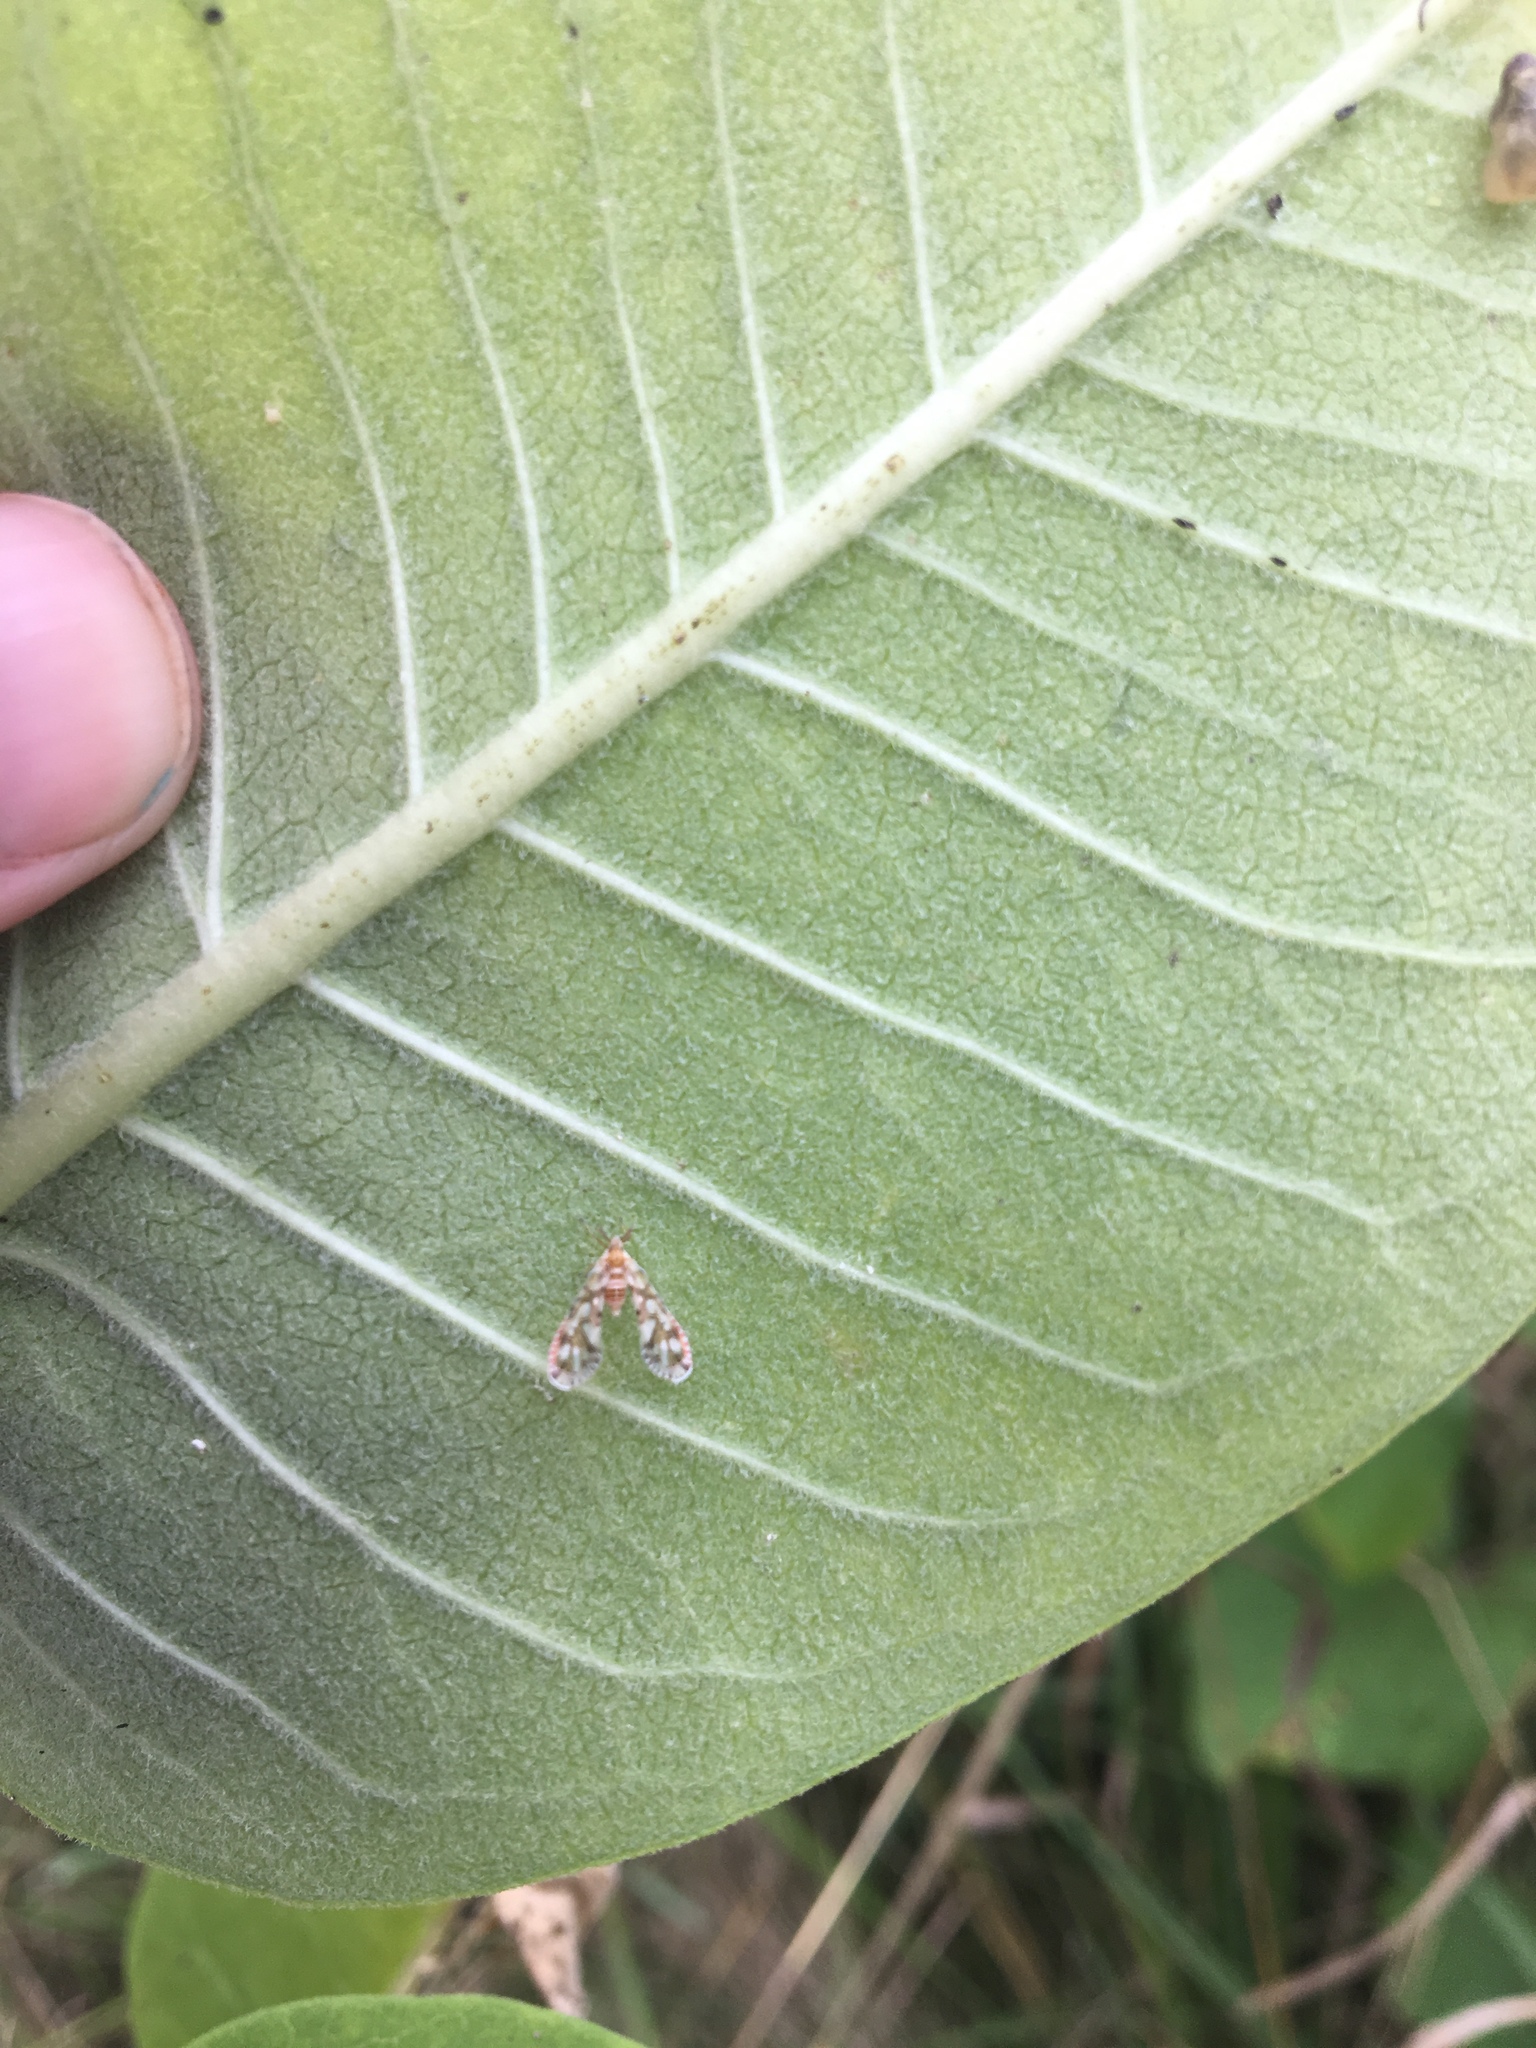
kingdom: Animalia
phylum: Arthropoda
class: Insecta
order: Hemiptera
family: Derbidae
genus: Anotia
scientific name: Anotia kirkaldyi
